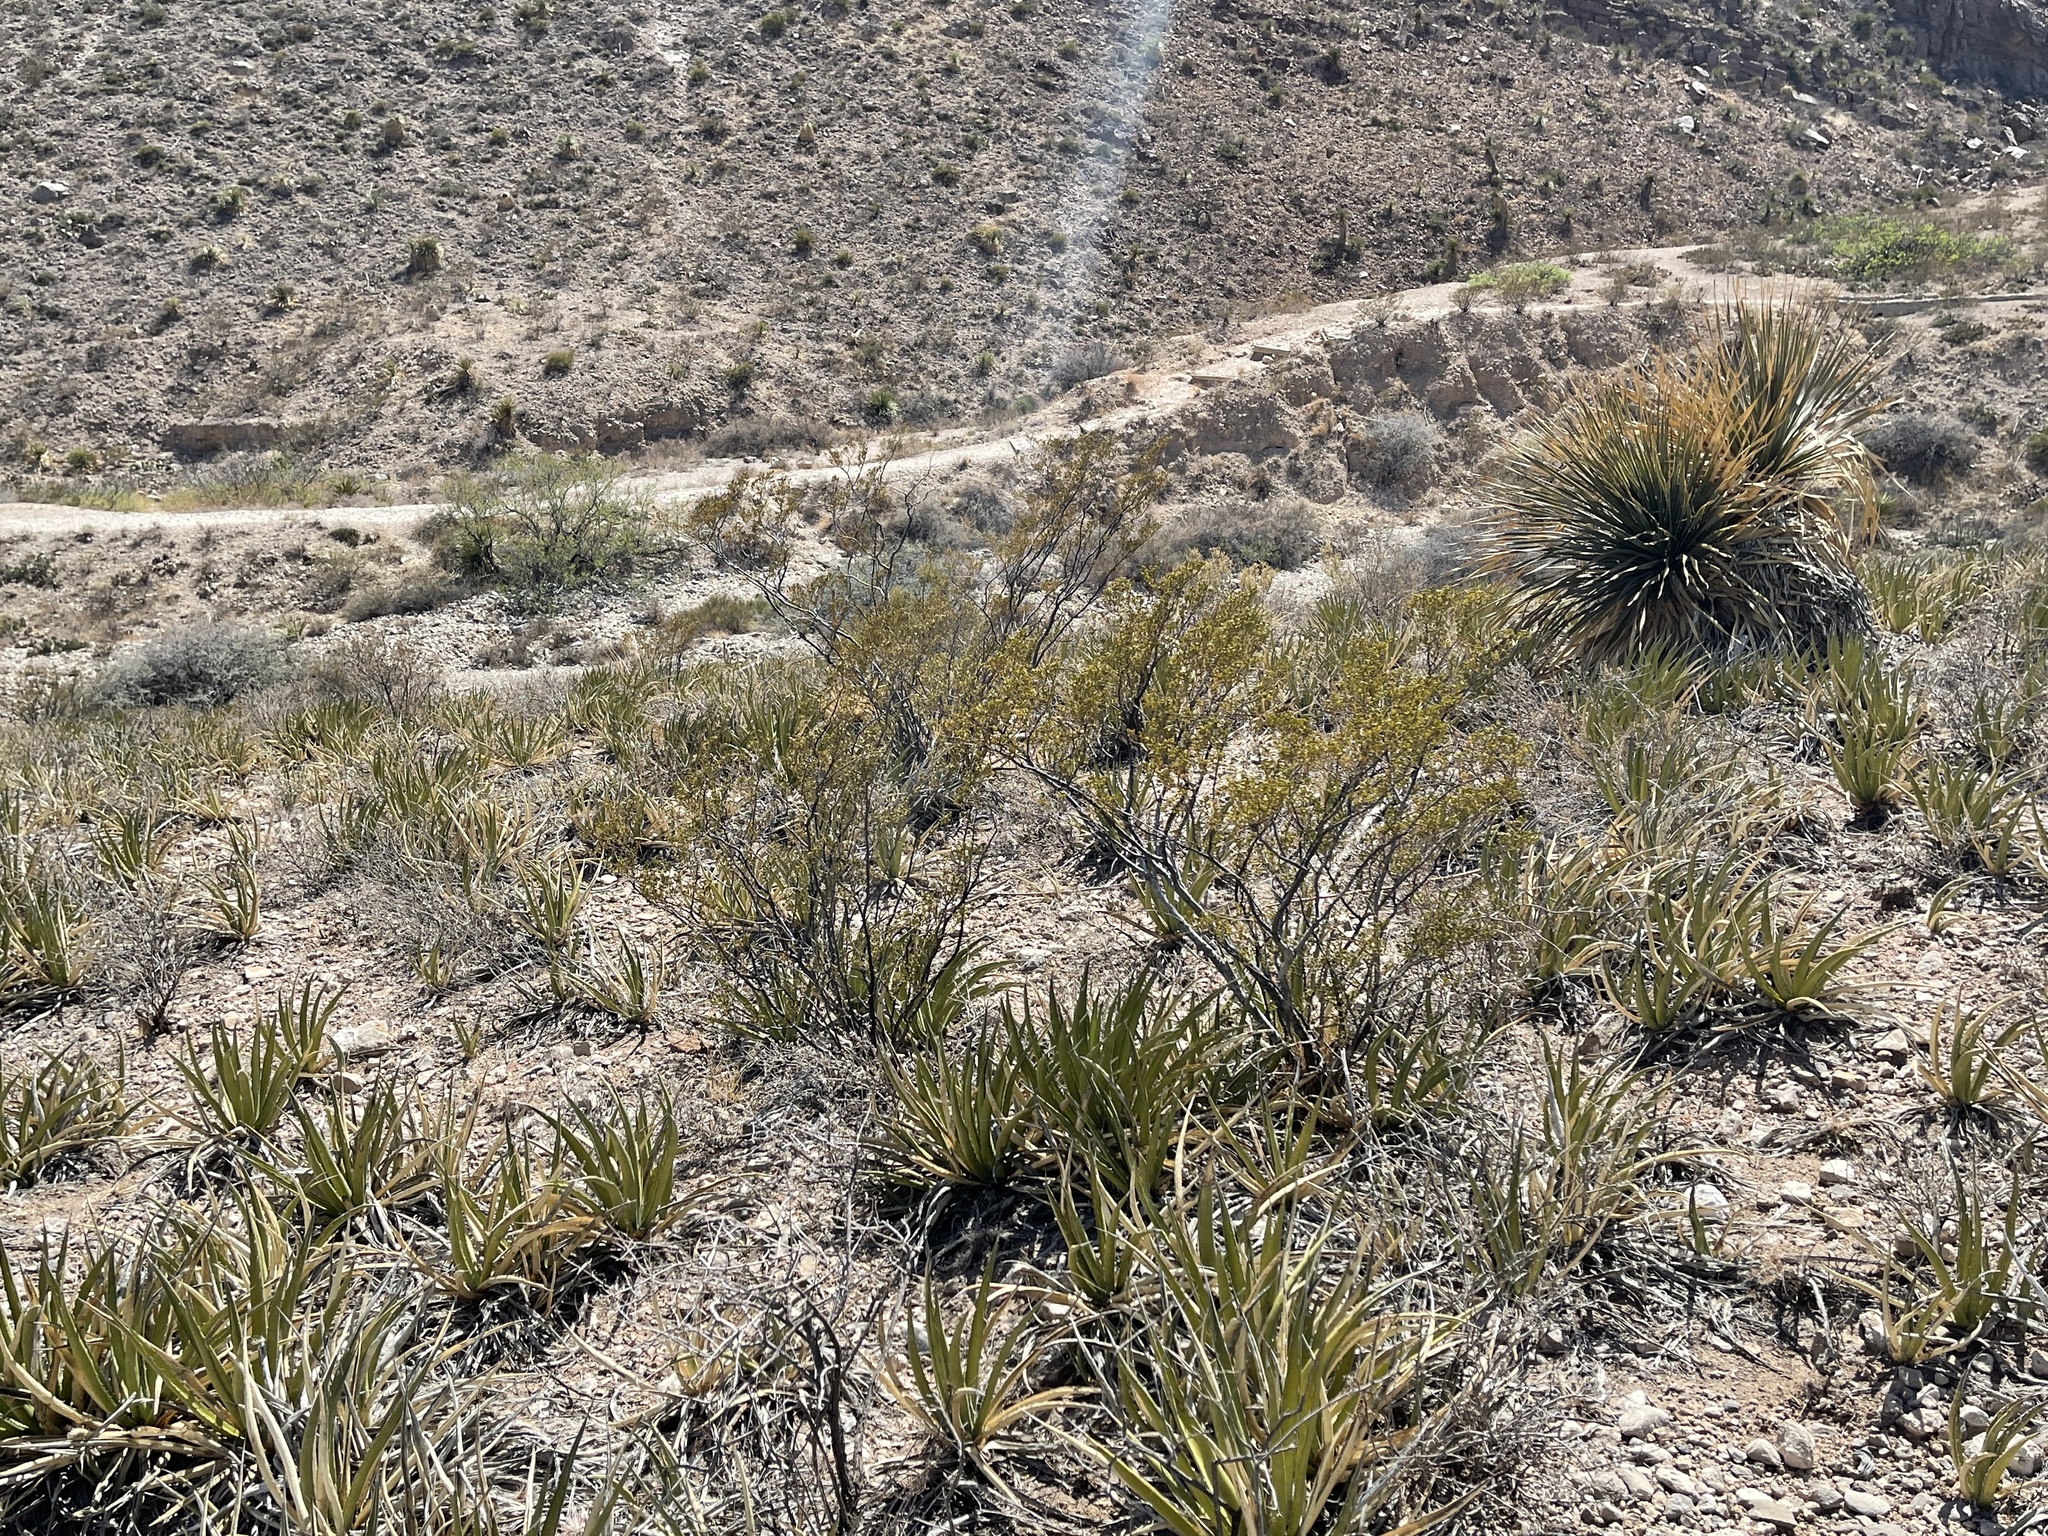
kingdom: Plantae
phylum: Tracheophyta
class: Magnoliopsida
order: Zygophyllales
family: Zygophyllaceae
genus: Larrea
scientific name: Larrea tridentata
